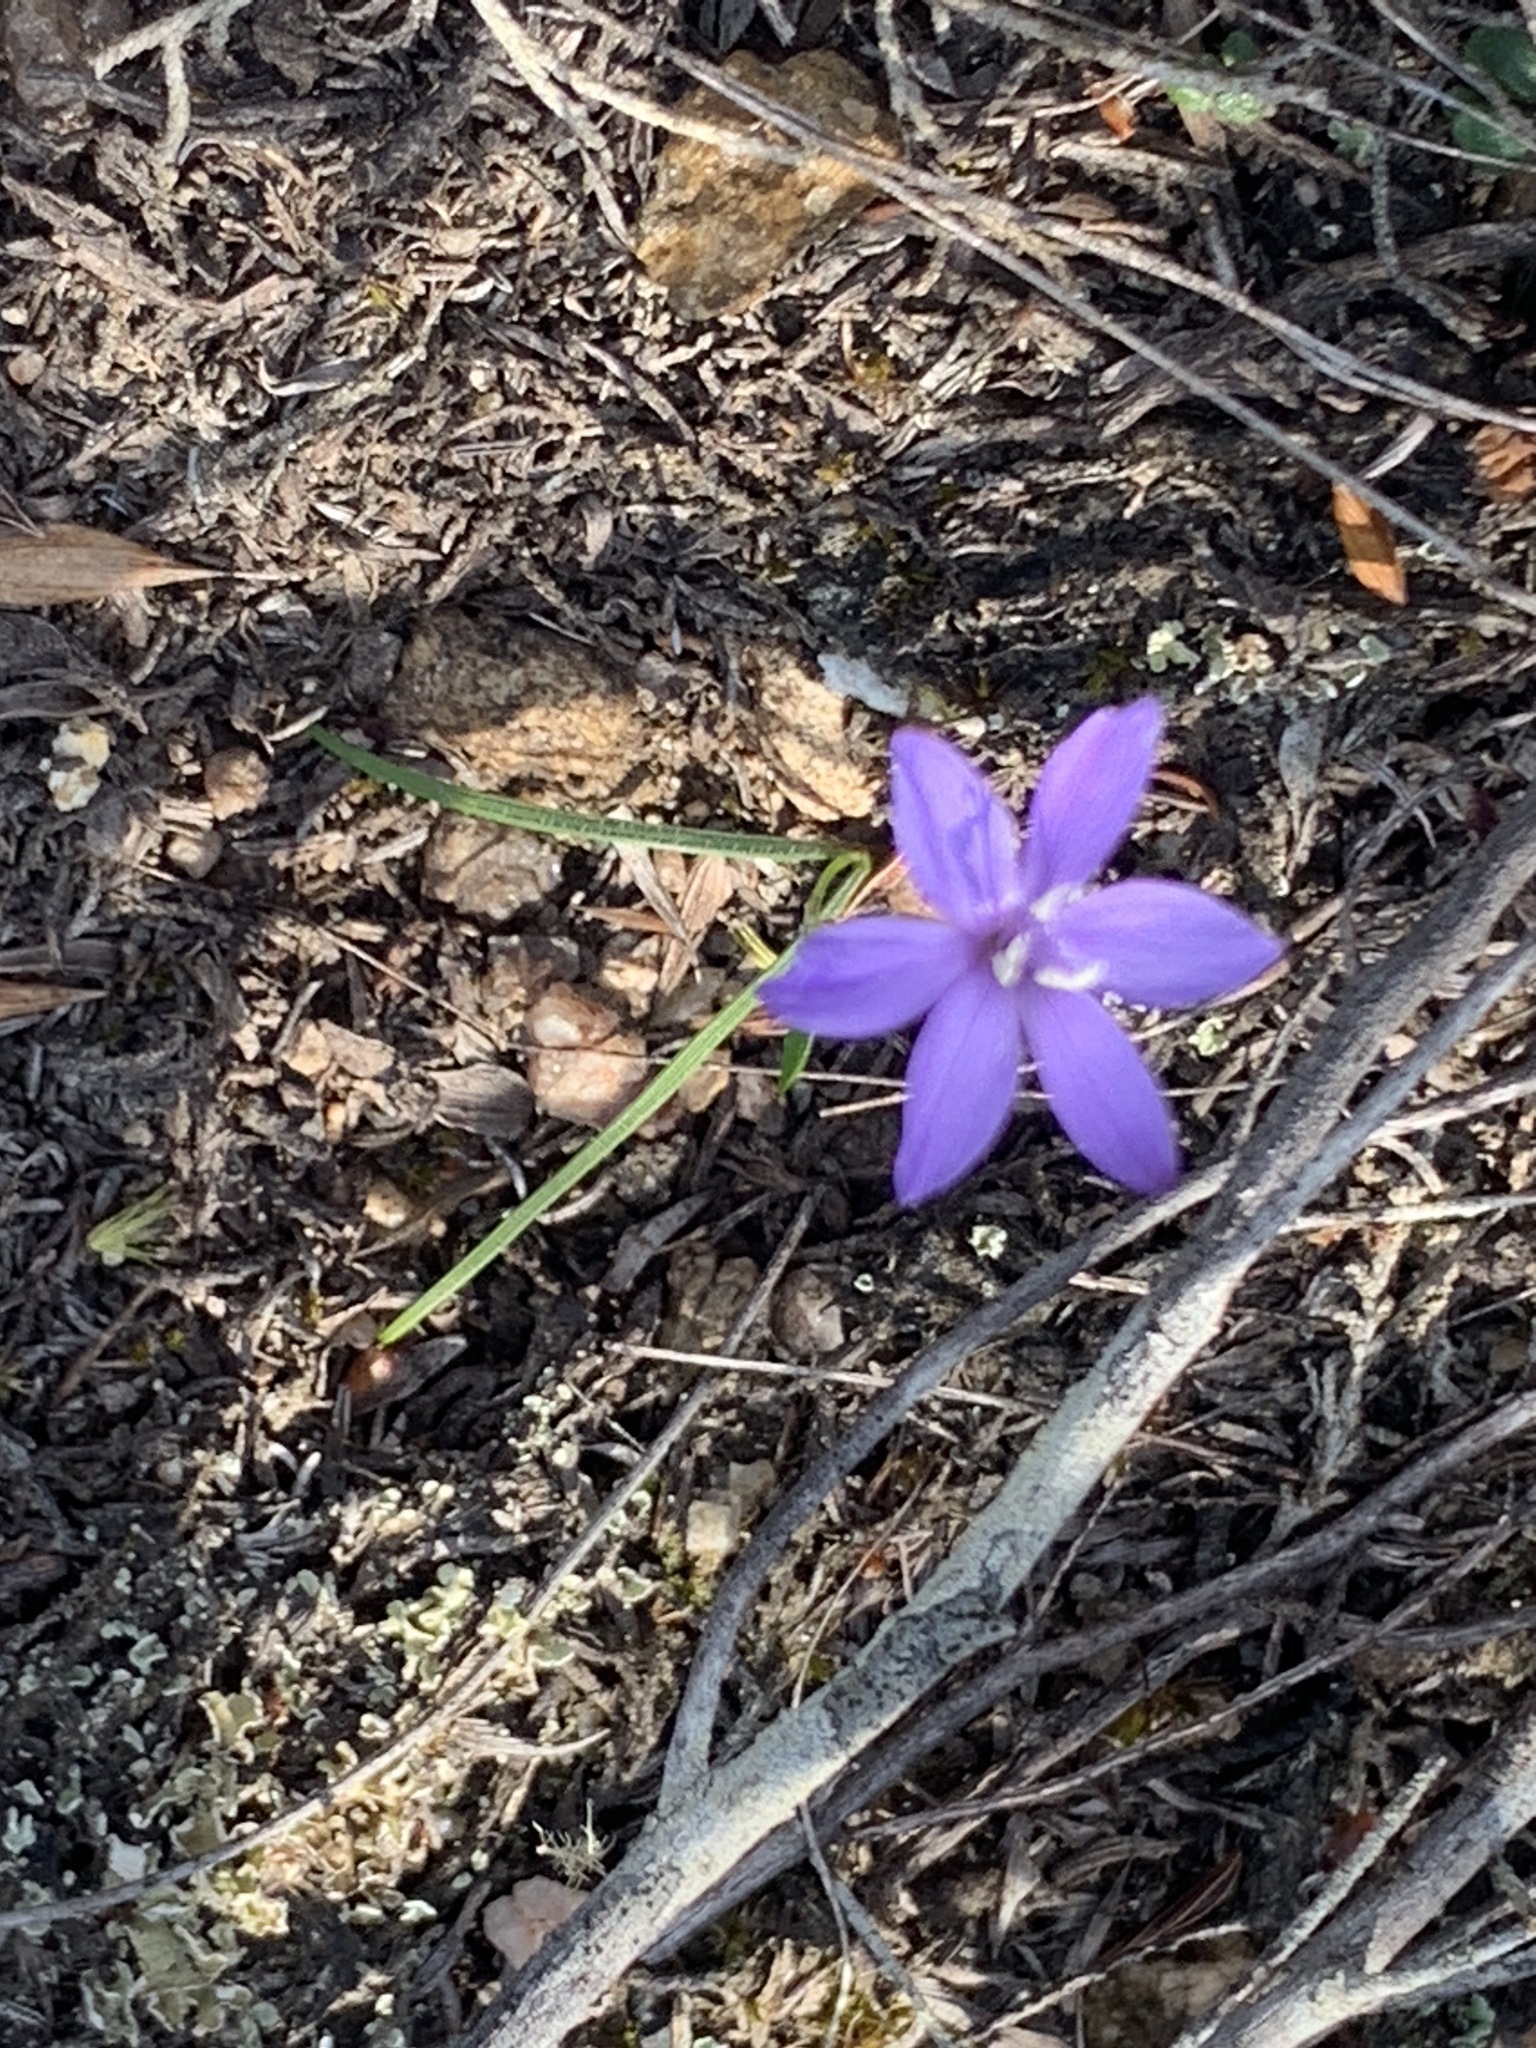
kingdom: Plantae
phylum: Tracheophyta
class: Liliopsida
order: Asparagales
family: Iridaceae
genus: Geissorhiza
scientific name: Geissorhiza aspera
